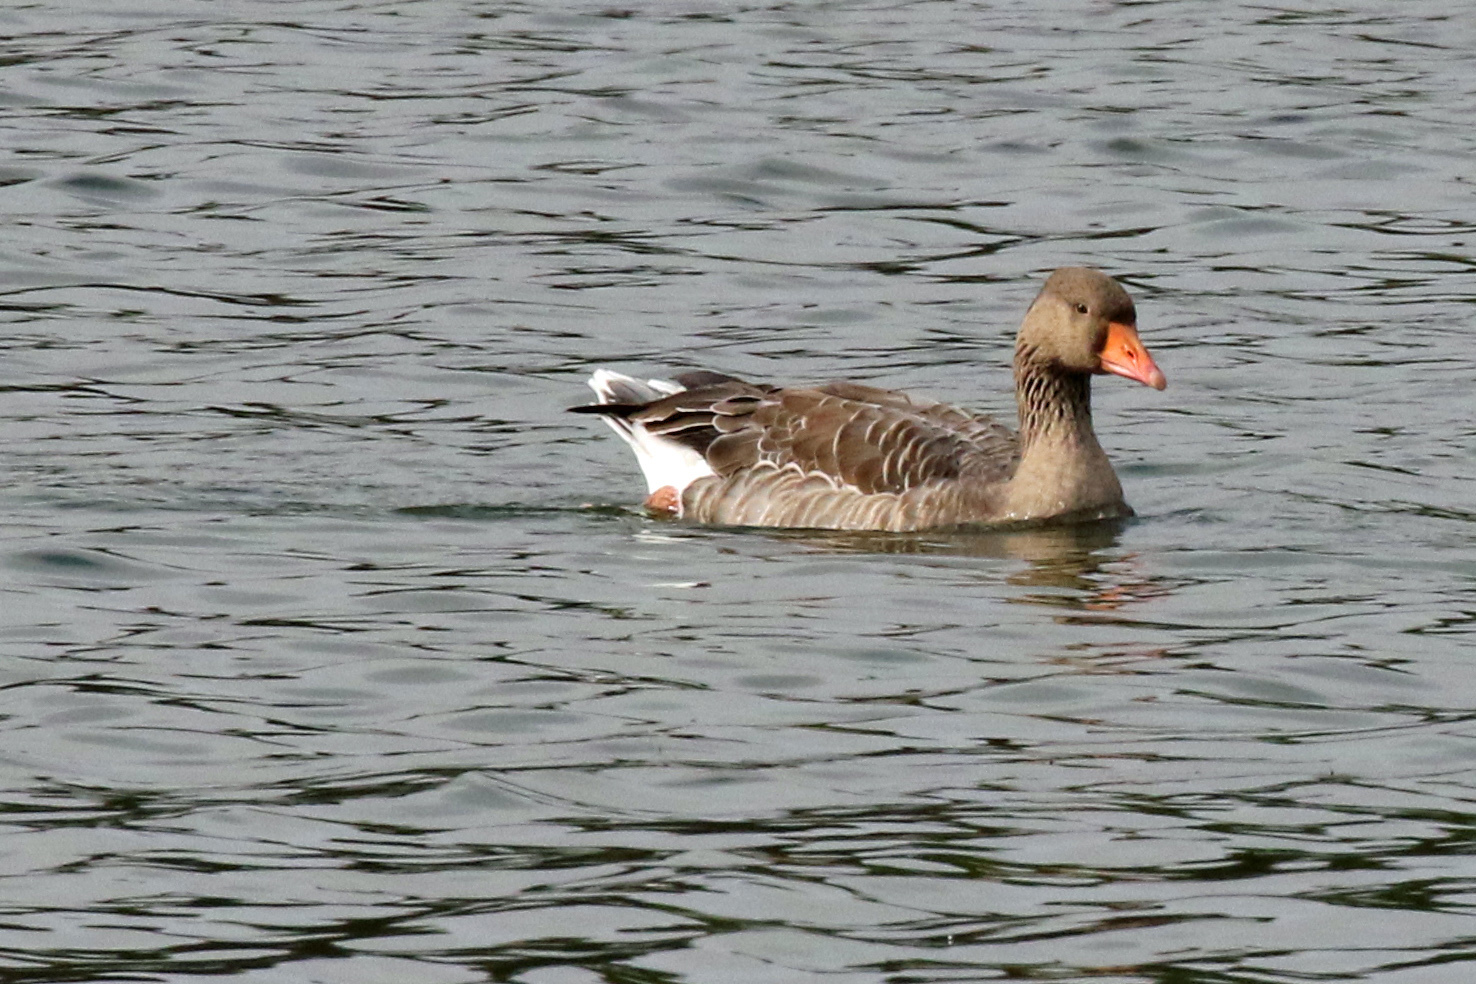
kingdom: Animalia
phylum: Chordata
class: Aves
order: Anseriformes
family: Anatidae
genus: Anser
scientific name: Anser anser
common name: Greylag goose
